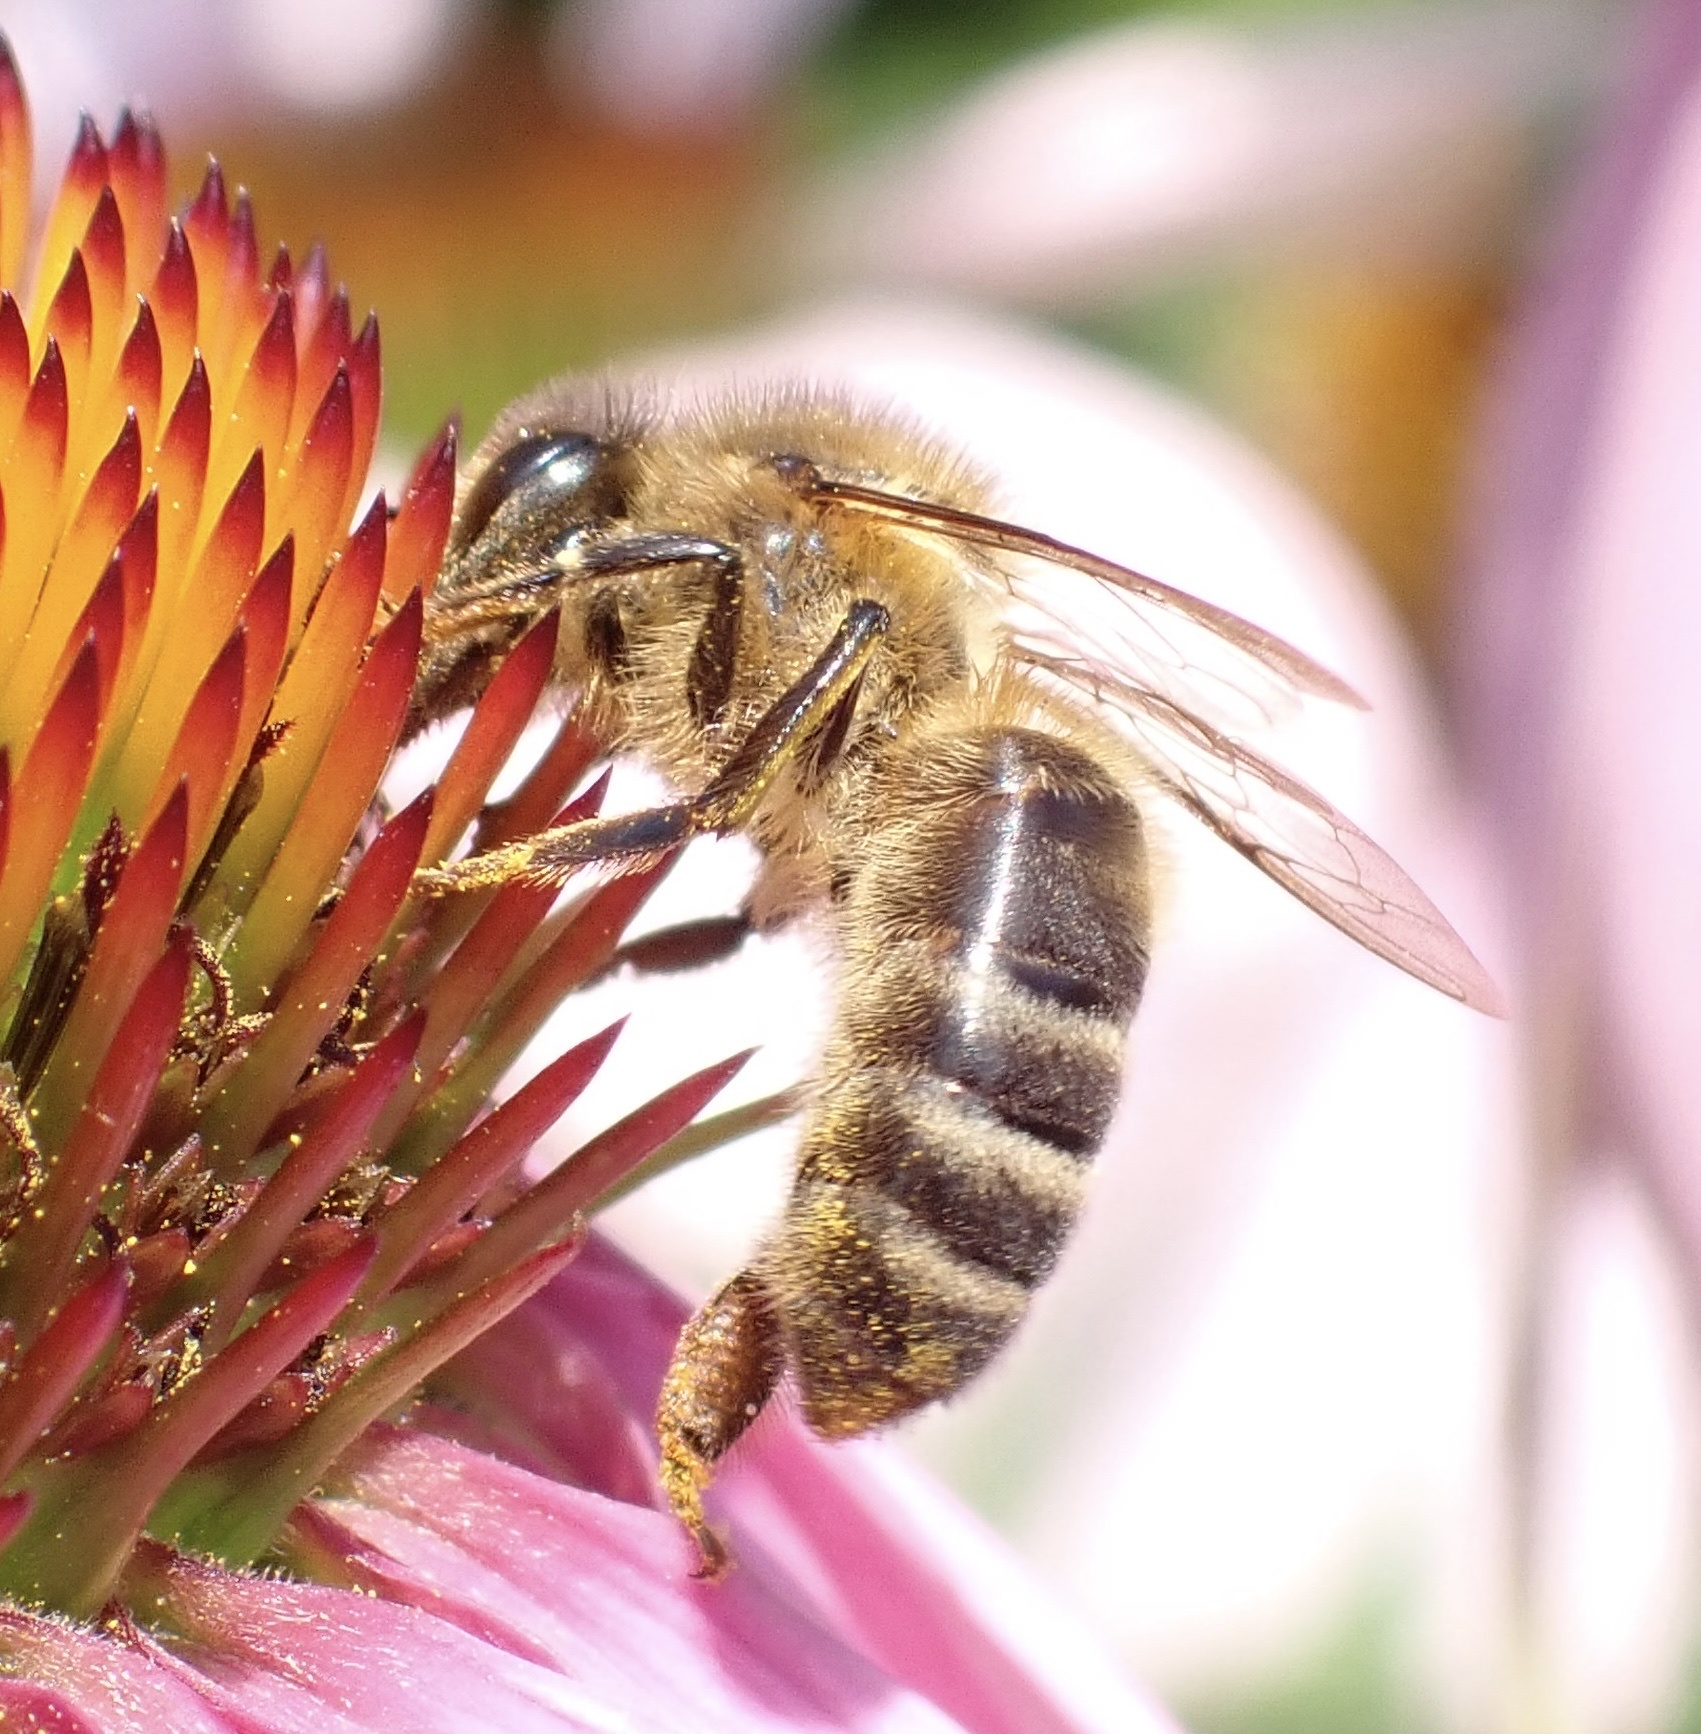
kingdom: Animalia
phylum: Arthropoda
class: Insecta
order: Hymenoptera
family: Apidae
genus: Apis
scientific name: Apis mellifera
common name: Honey bee
